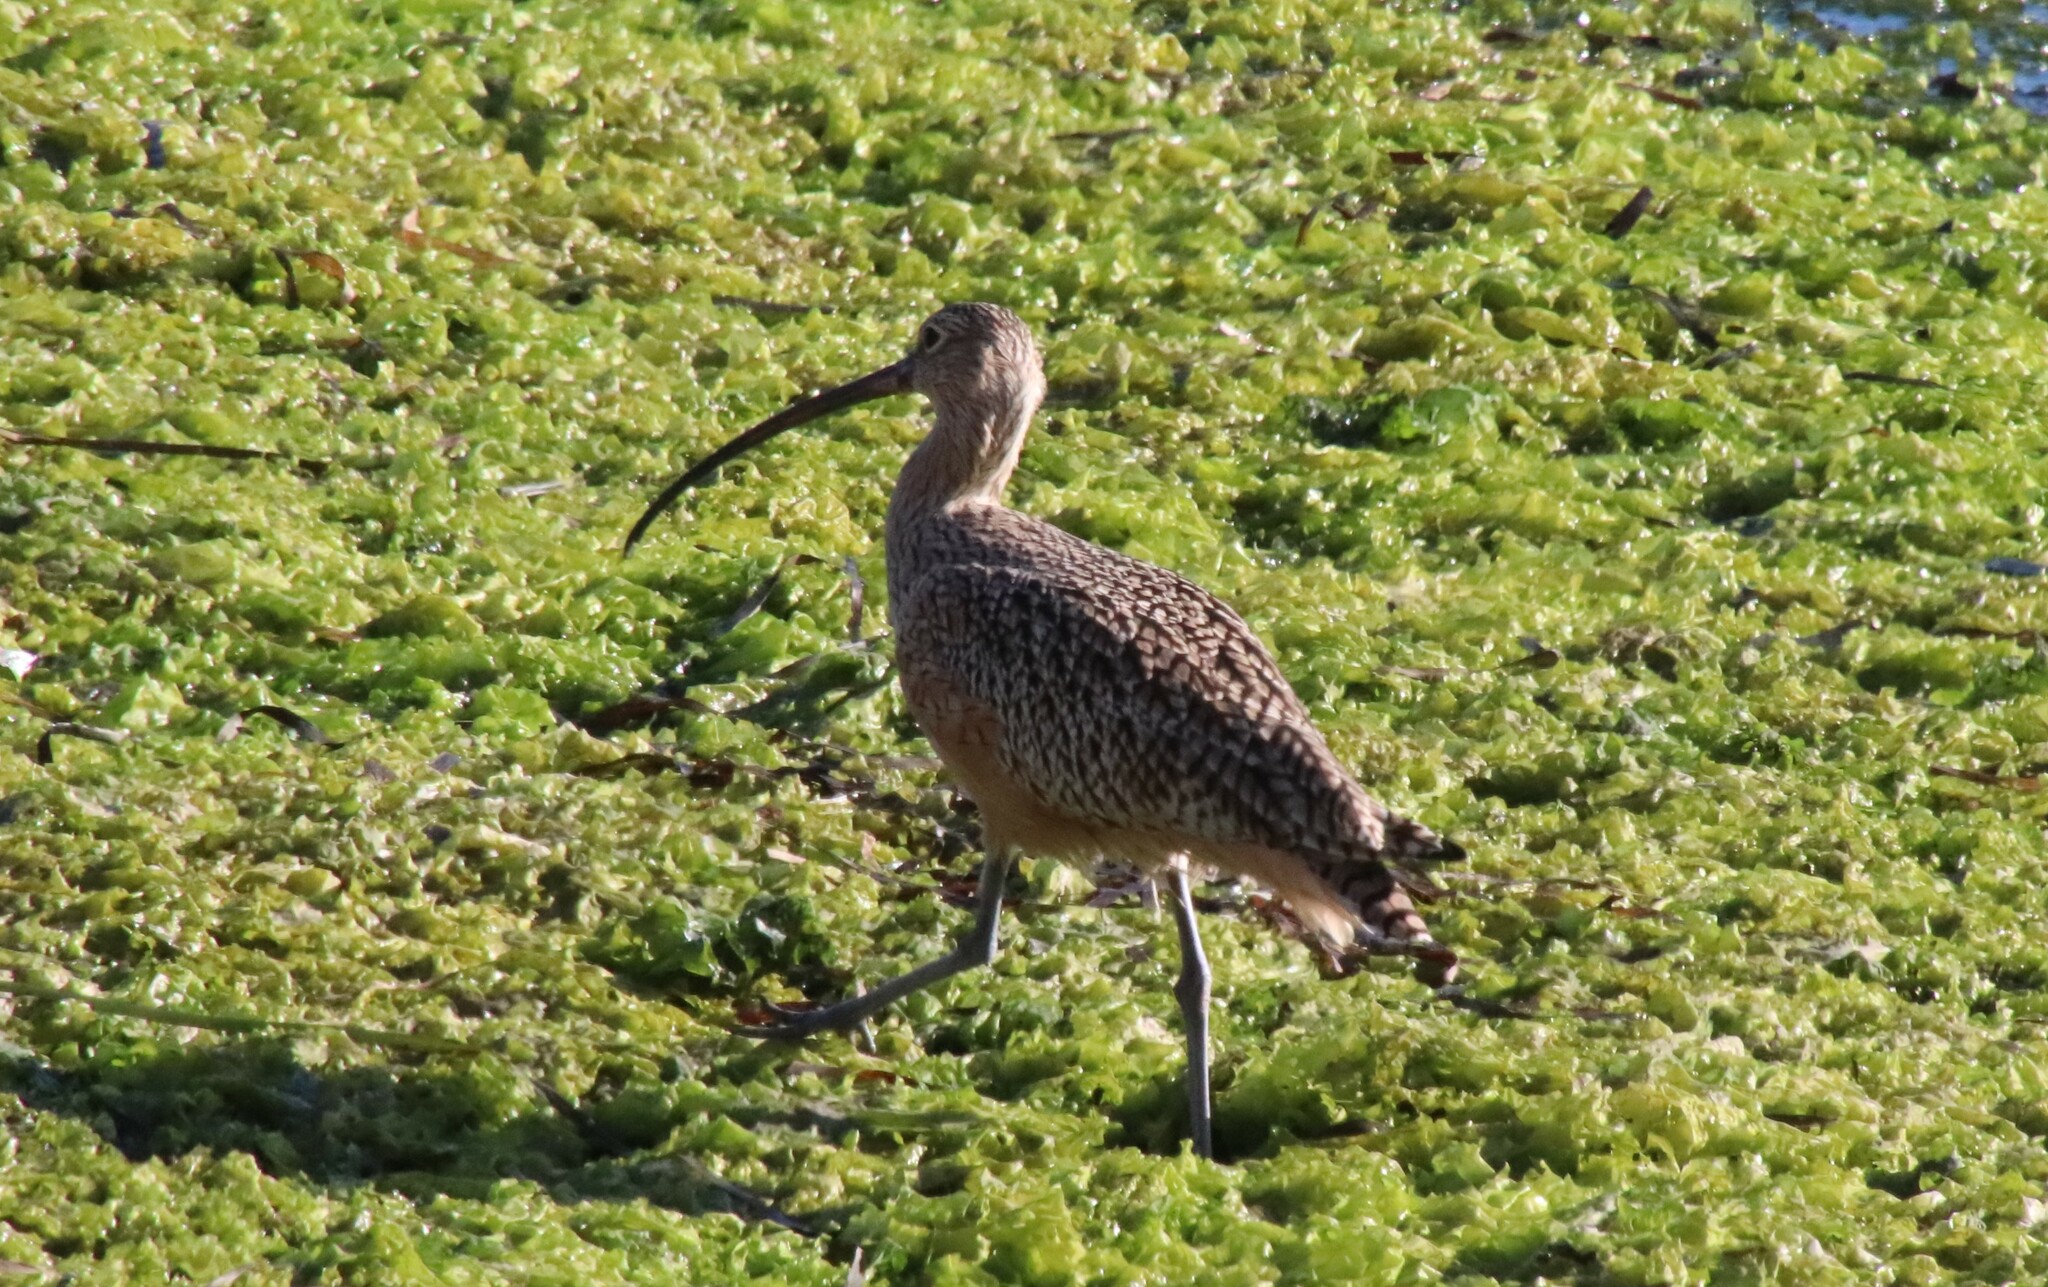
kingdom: Animalia
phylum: Chordata
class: Aves
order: Charadriiformes
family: Scolopacidae
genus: Numenius
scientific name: Numenius americanus
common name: Long-billed curlew
